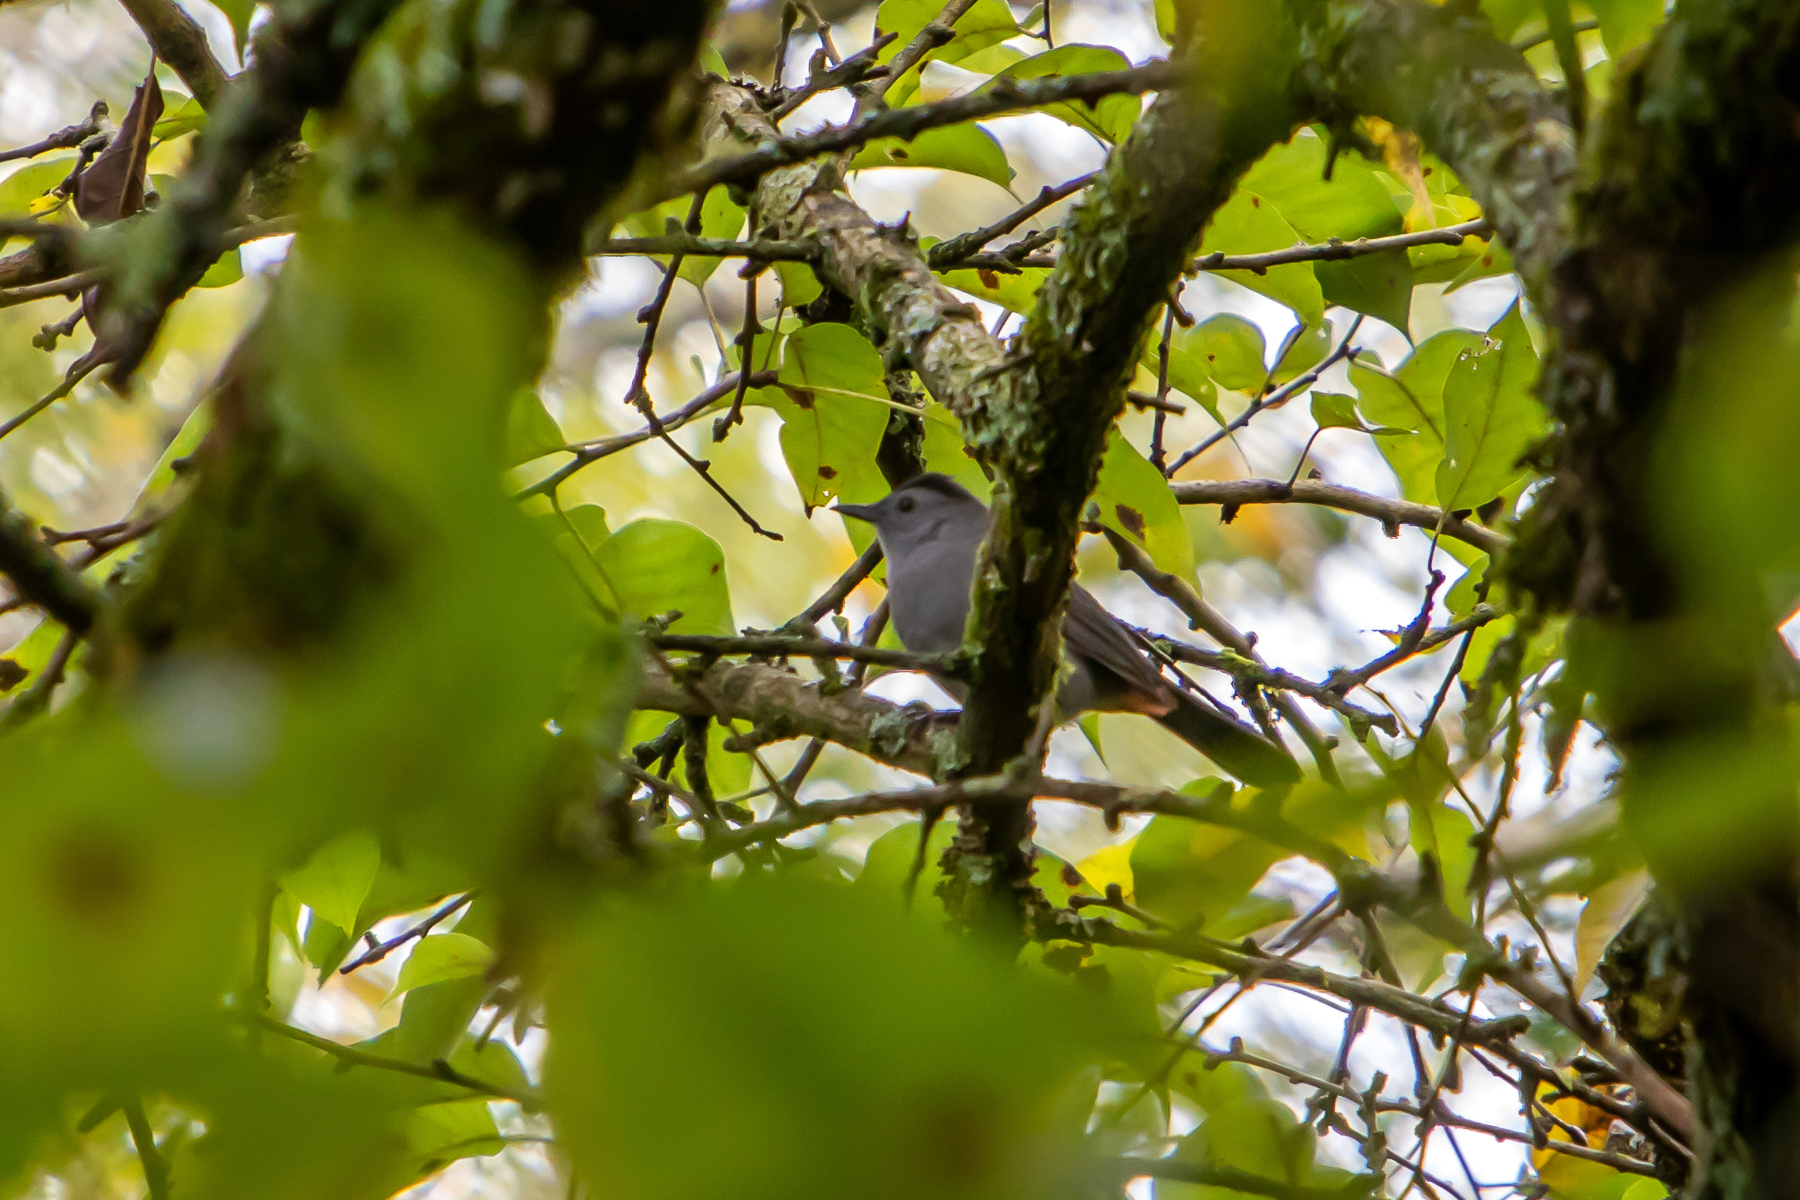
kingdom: Animalia
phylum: Chordata
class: Aves
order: Passeriformes
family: Mimidae
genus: Dumetella
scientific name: Dumetella carolinensis
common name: Gray catbird
